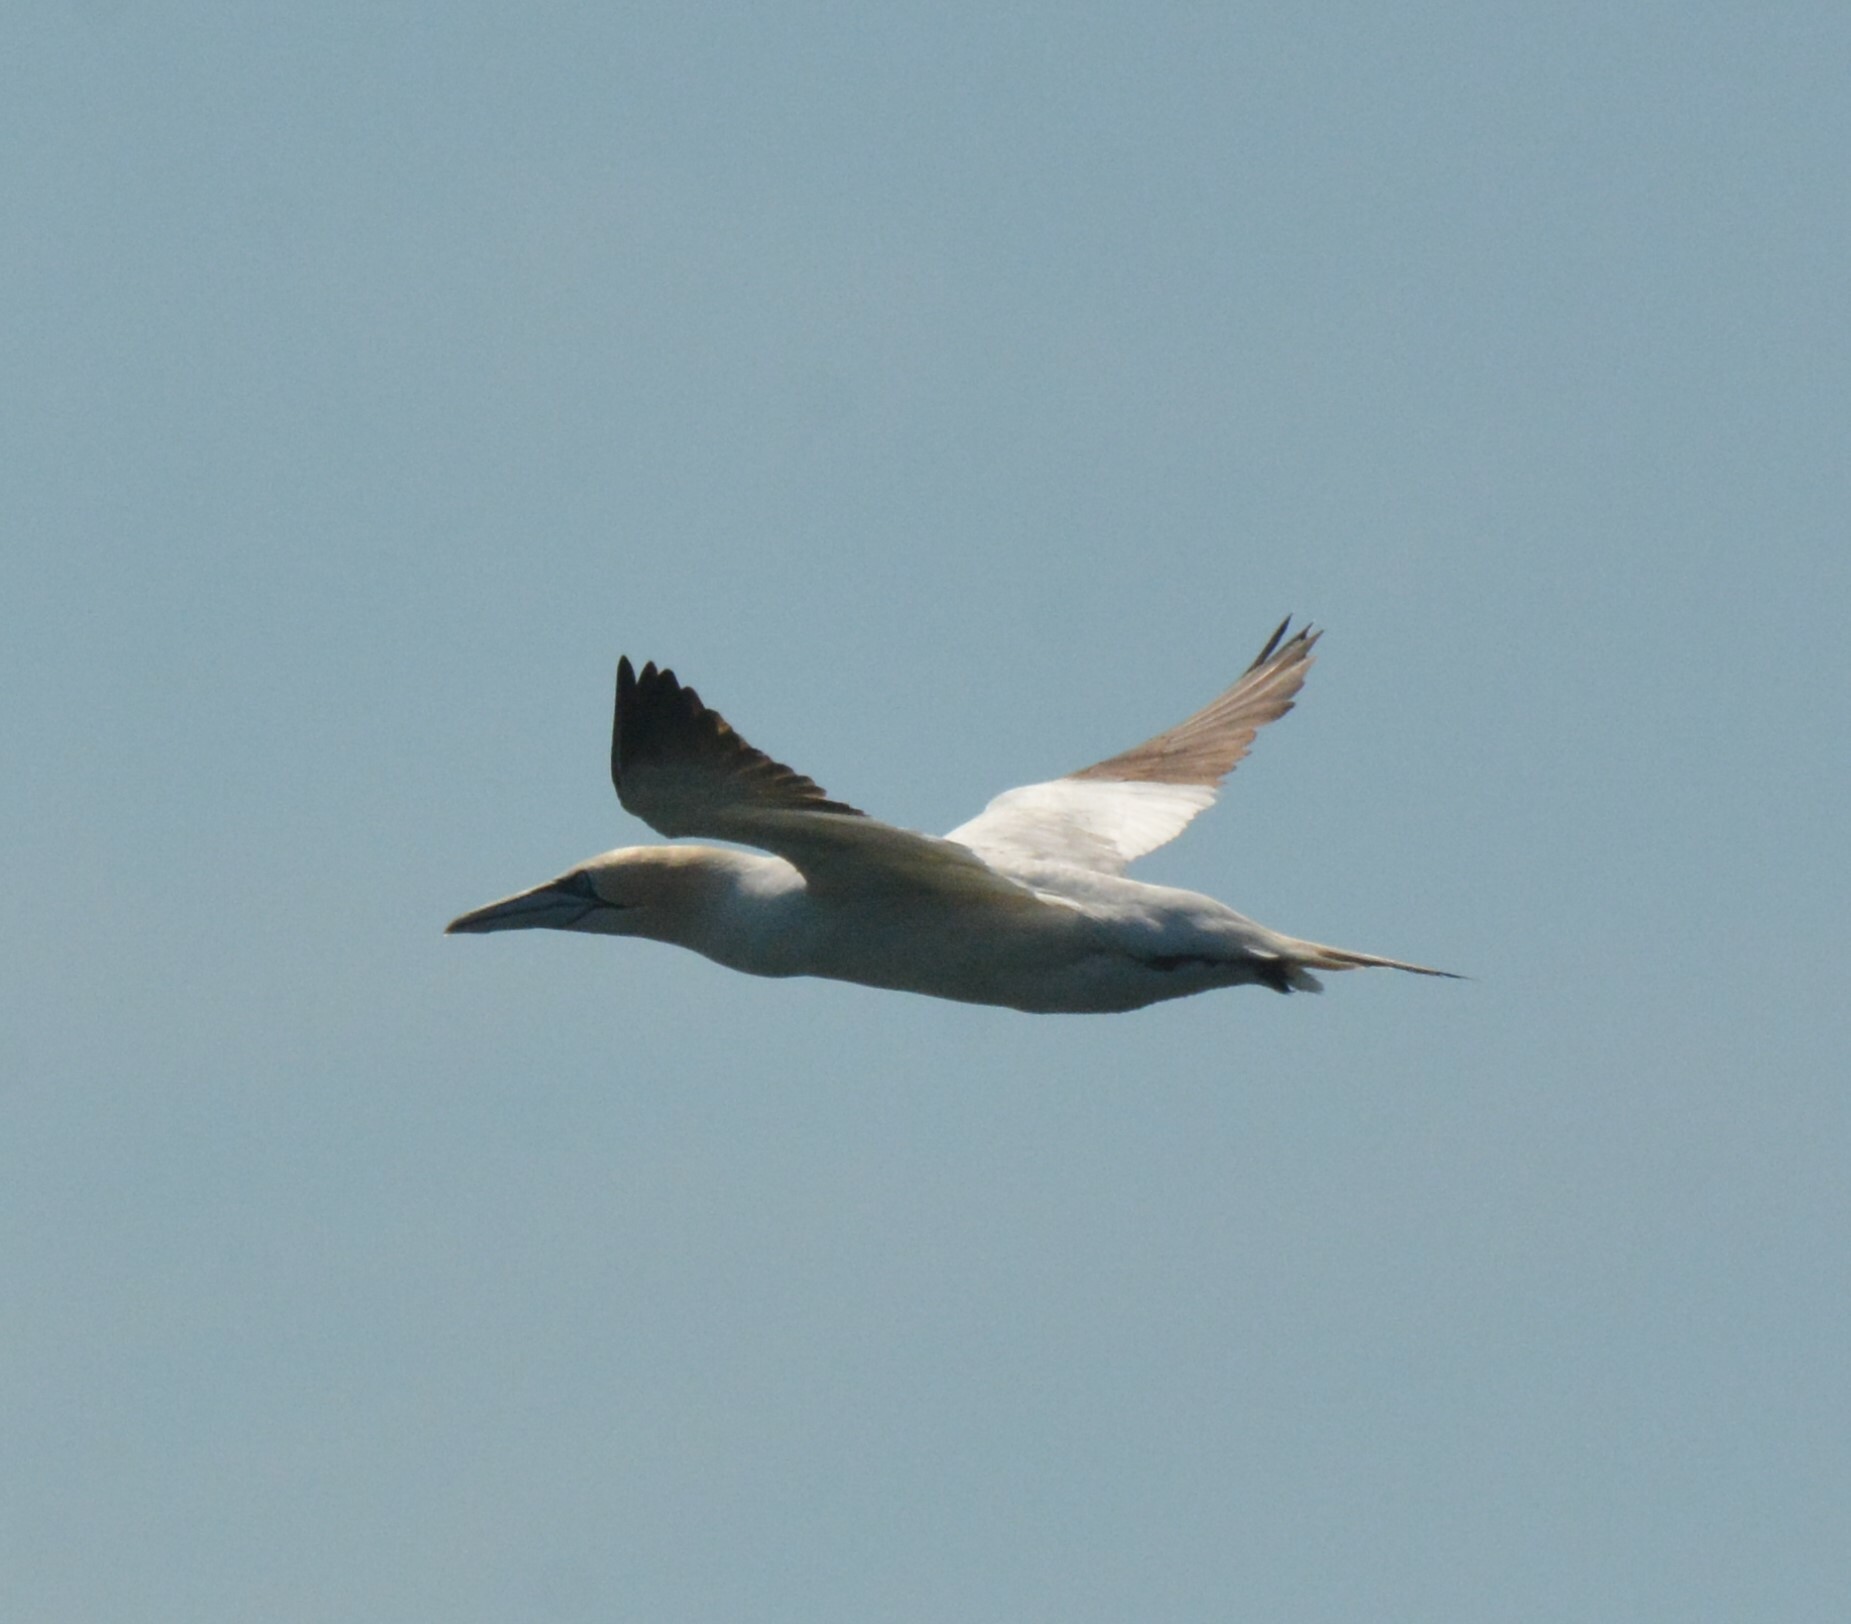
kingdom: Animalia
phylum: Chordata
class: Aves
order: Suliformes
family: Sulidae
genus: Morus
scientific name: Morus bassanus
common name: Northern gannet
